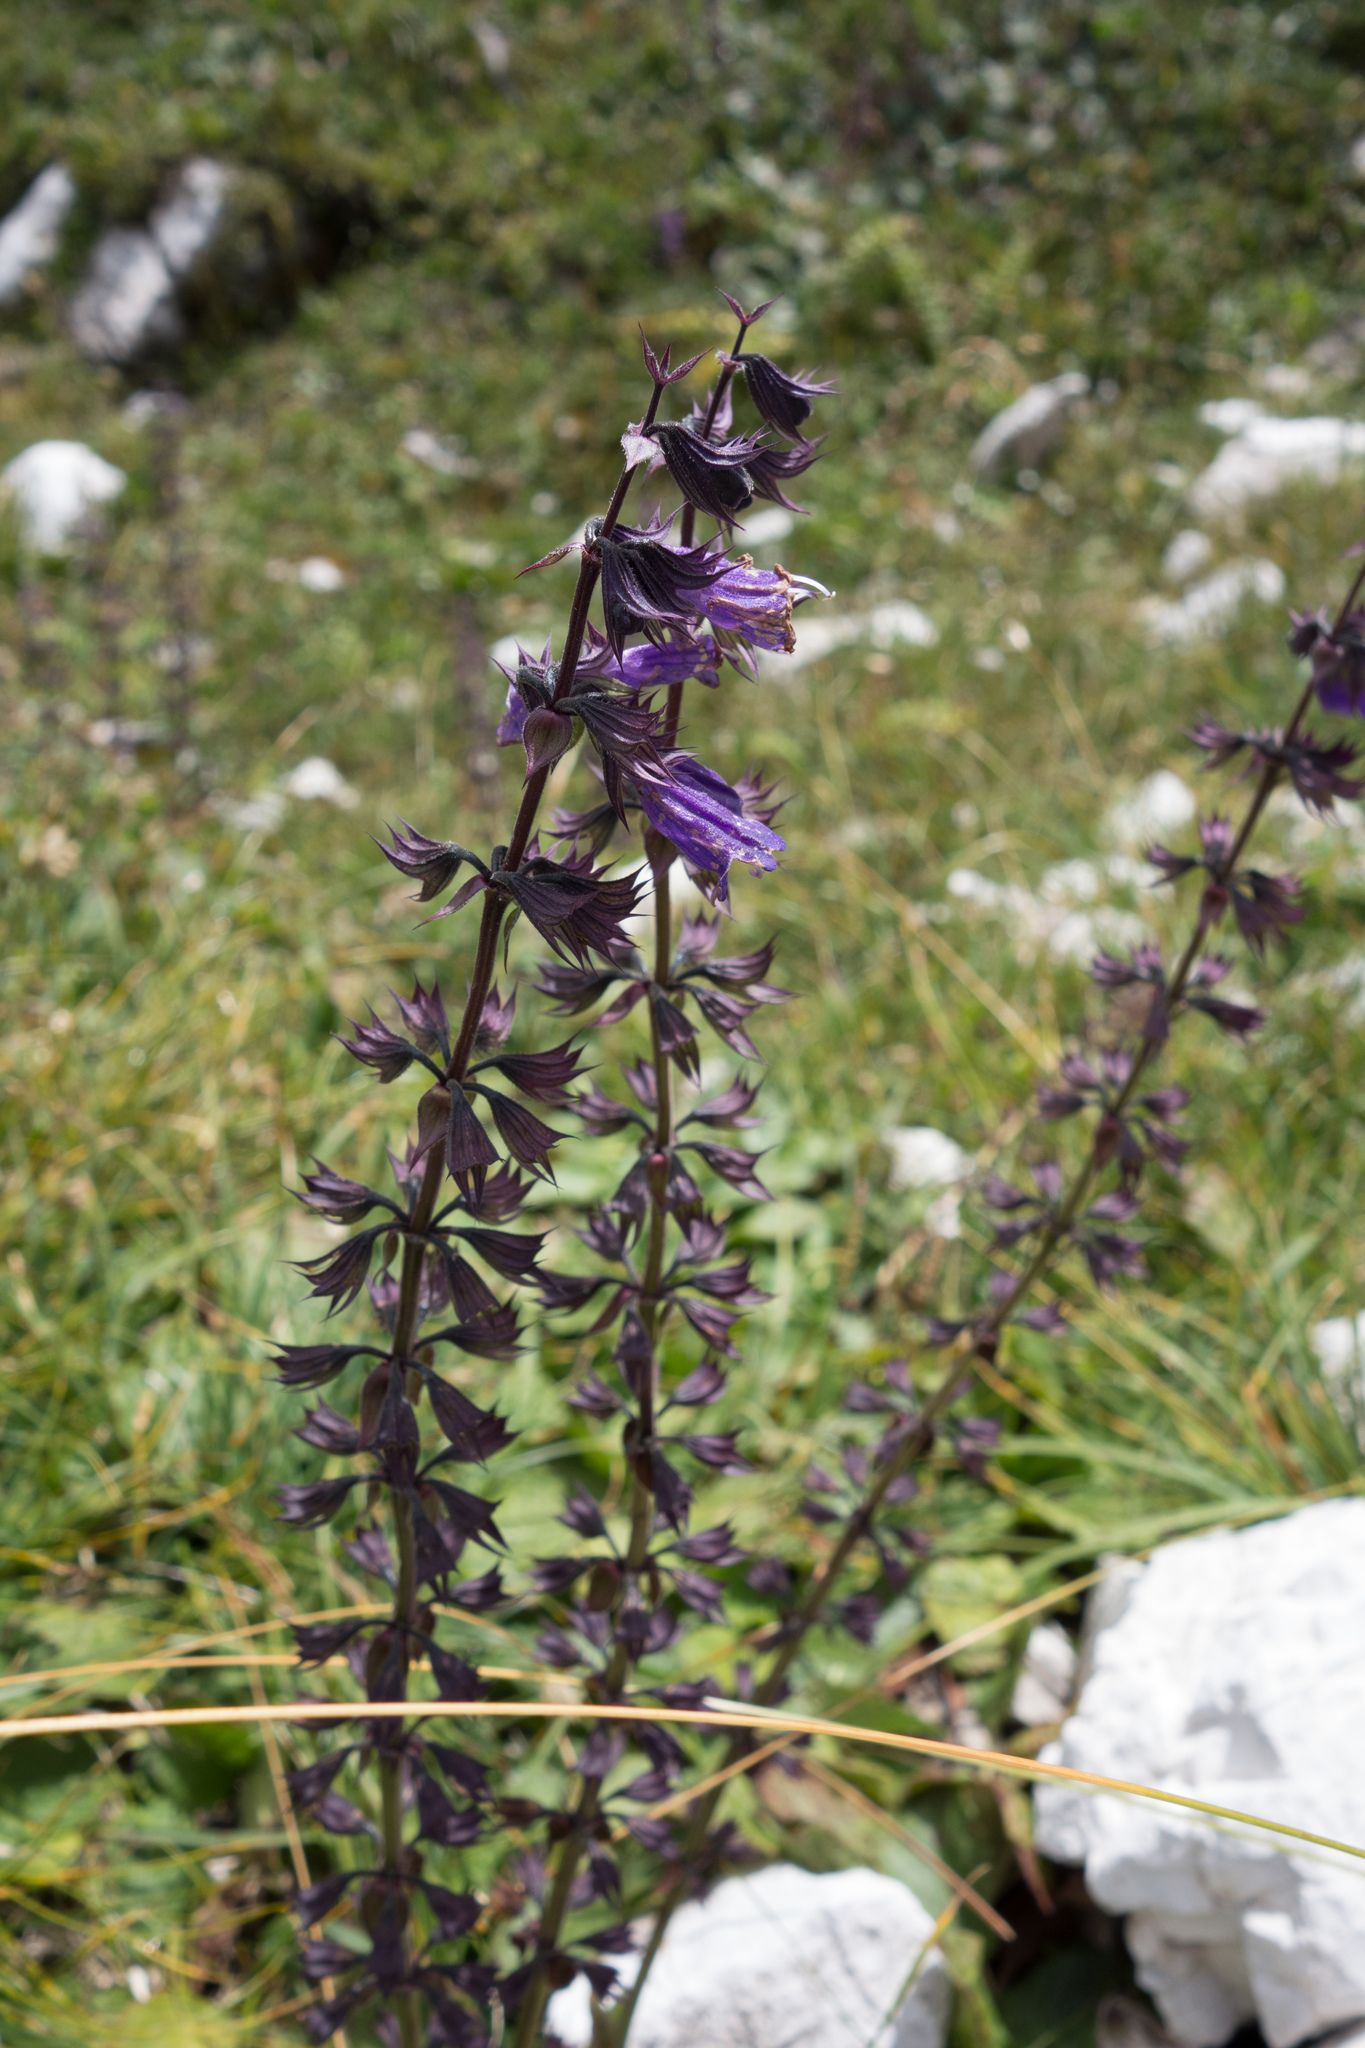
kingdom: Plantae
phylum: Tracheophyta
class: Magnoliopsida
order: Lamiales
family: Lamiaceae
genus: Salvia
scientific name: Salvia pratensis
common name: Meadow sage
